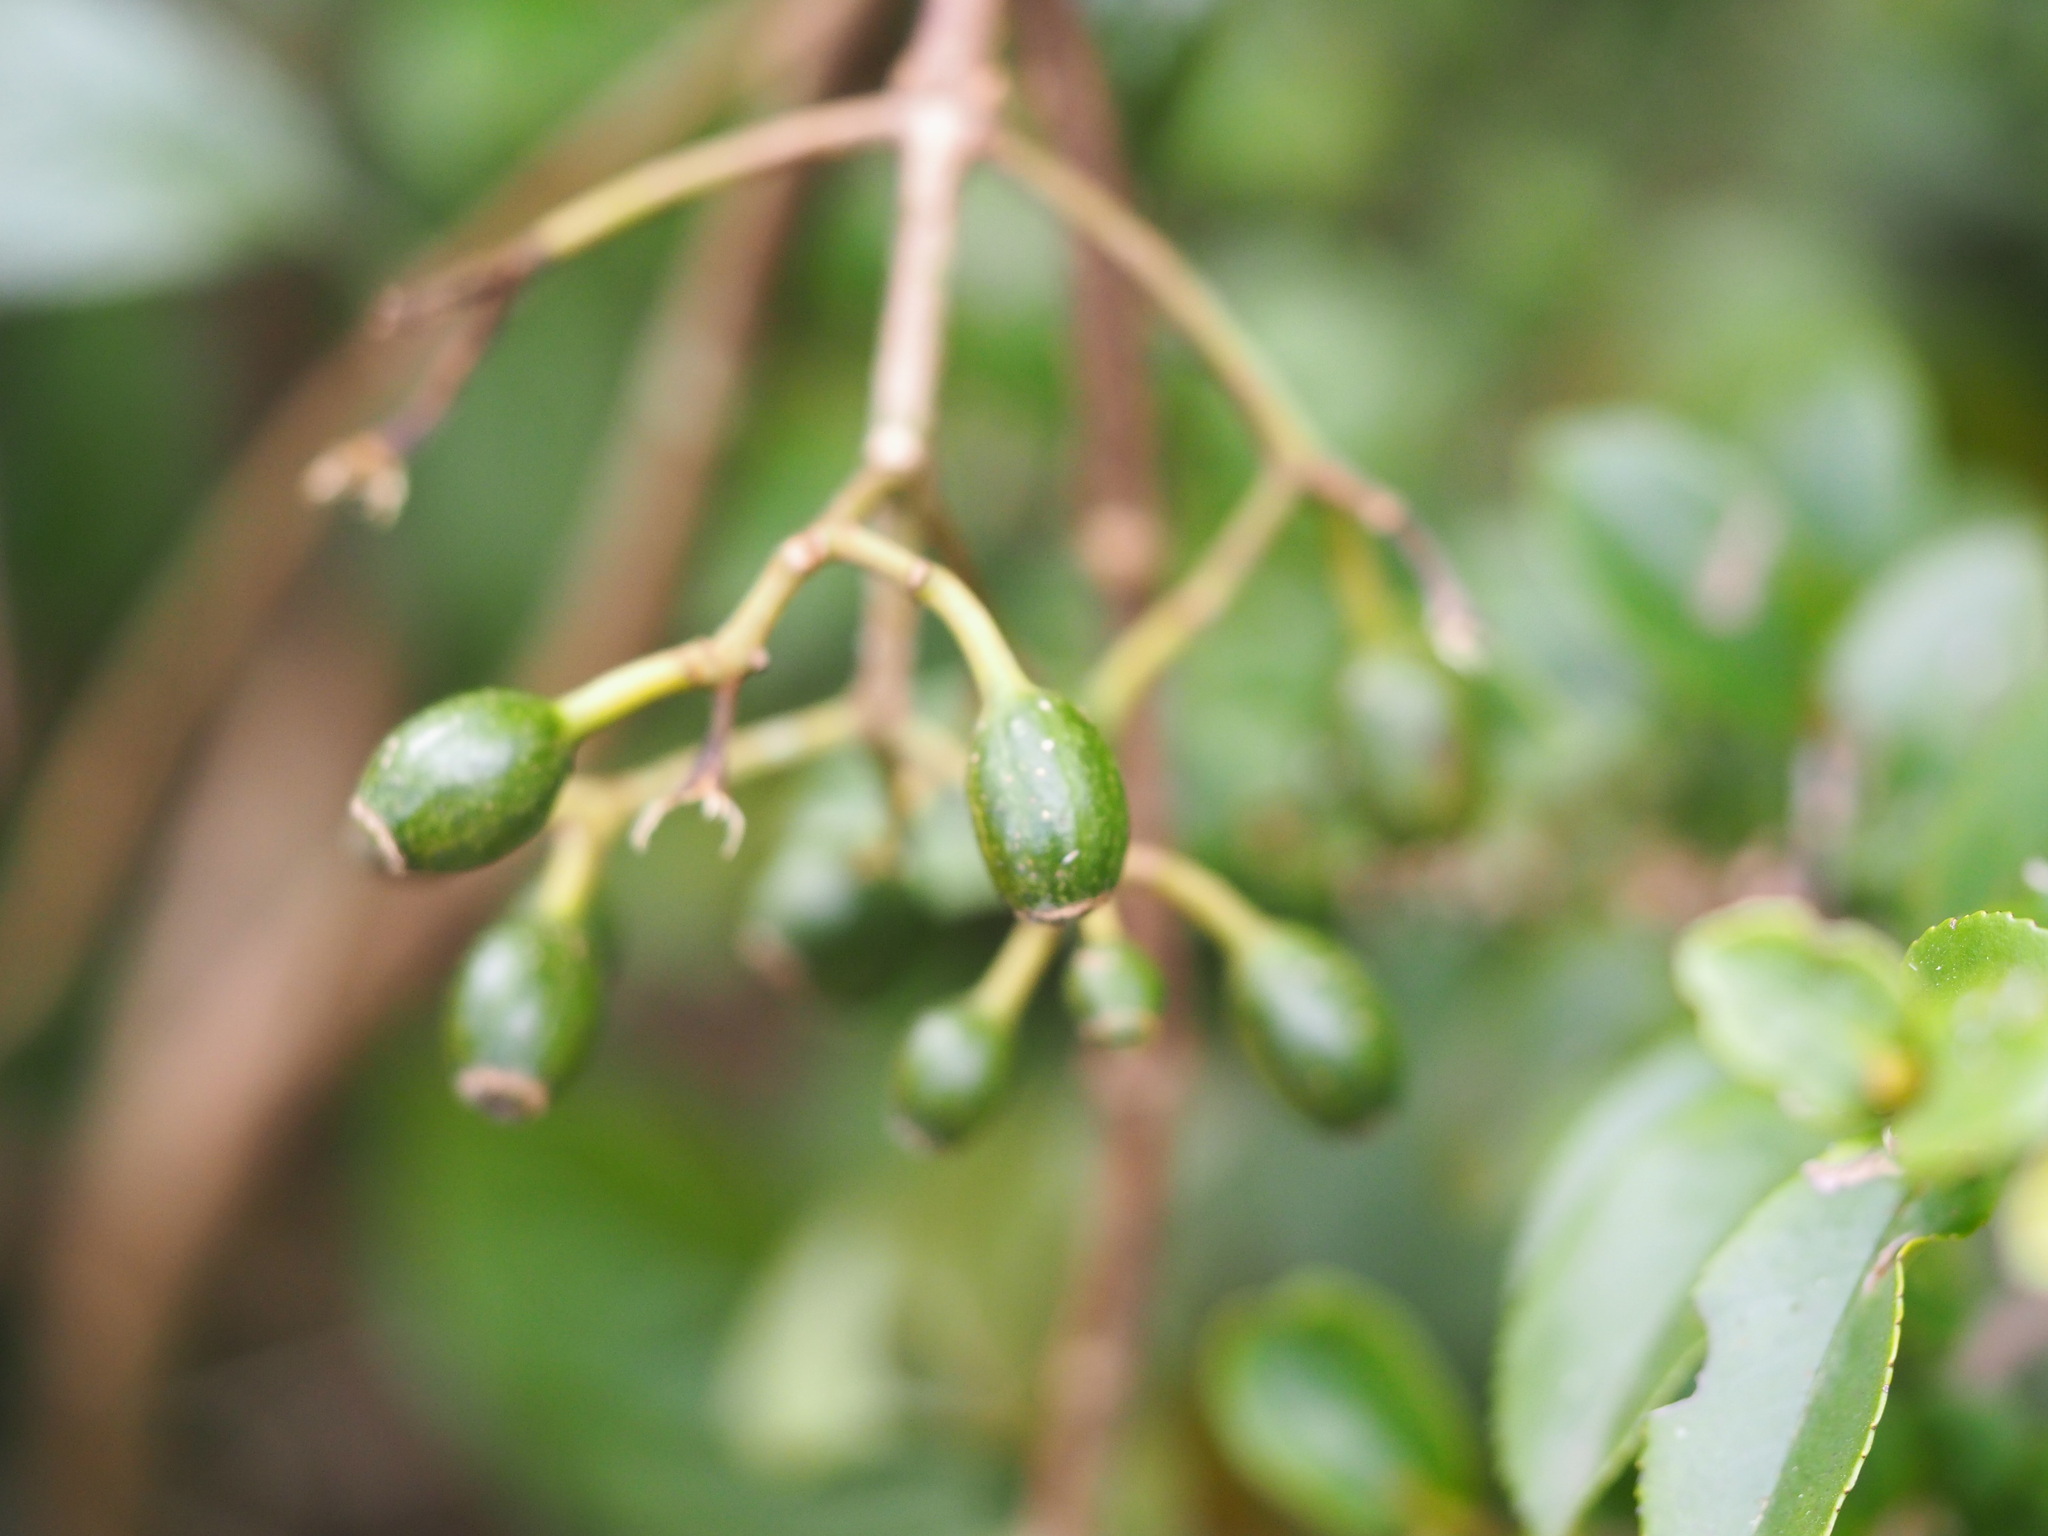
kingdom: Plantae
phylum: Tracheophyta
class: Magnoliopsida
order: Gentianales
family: Rubiaceae
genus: Mussaenda
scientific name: Mussaenda parviflora
